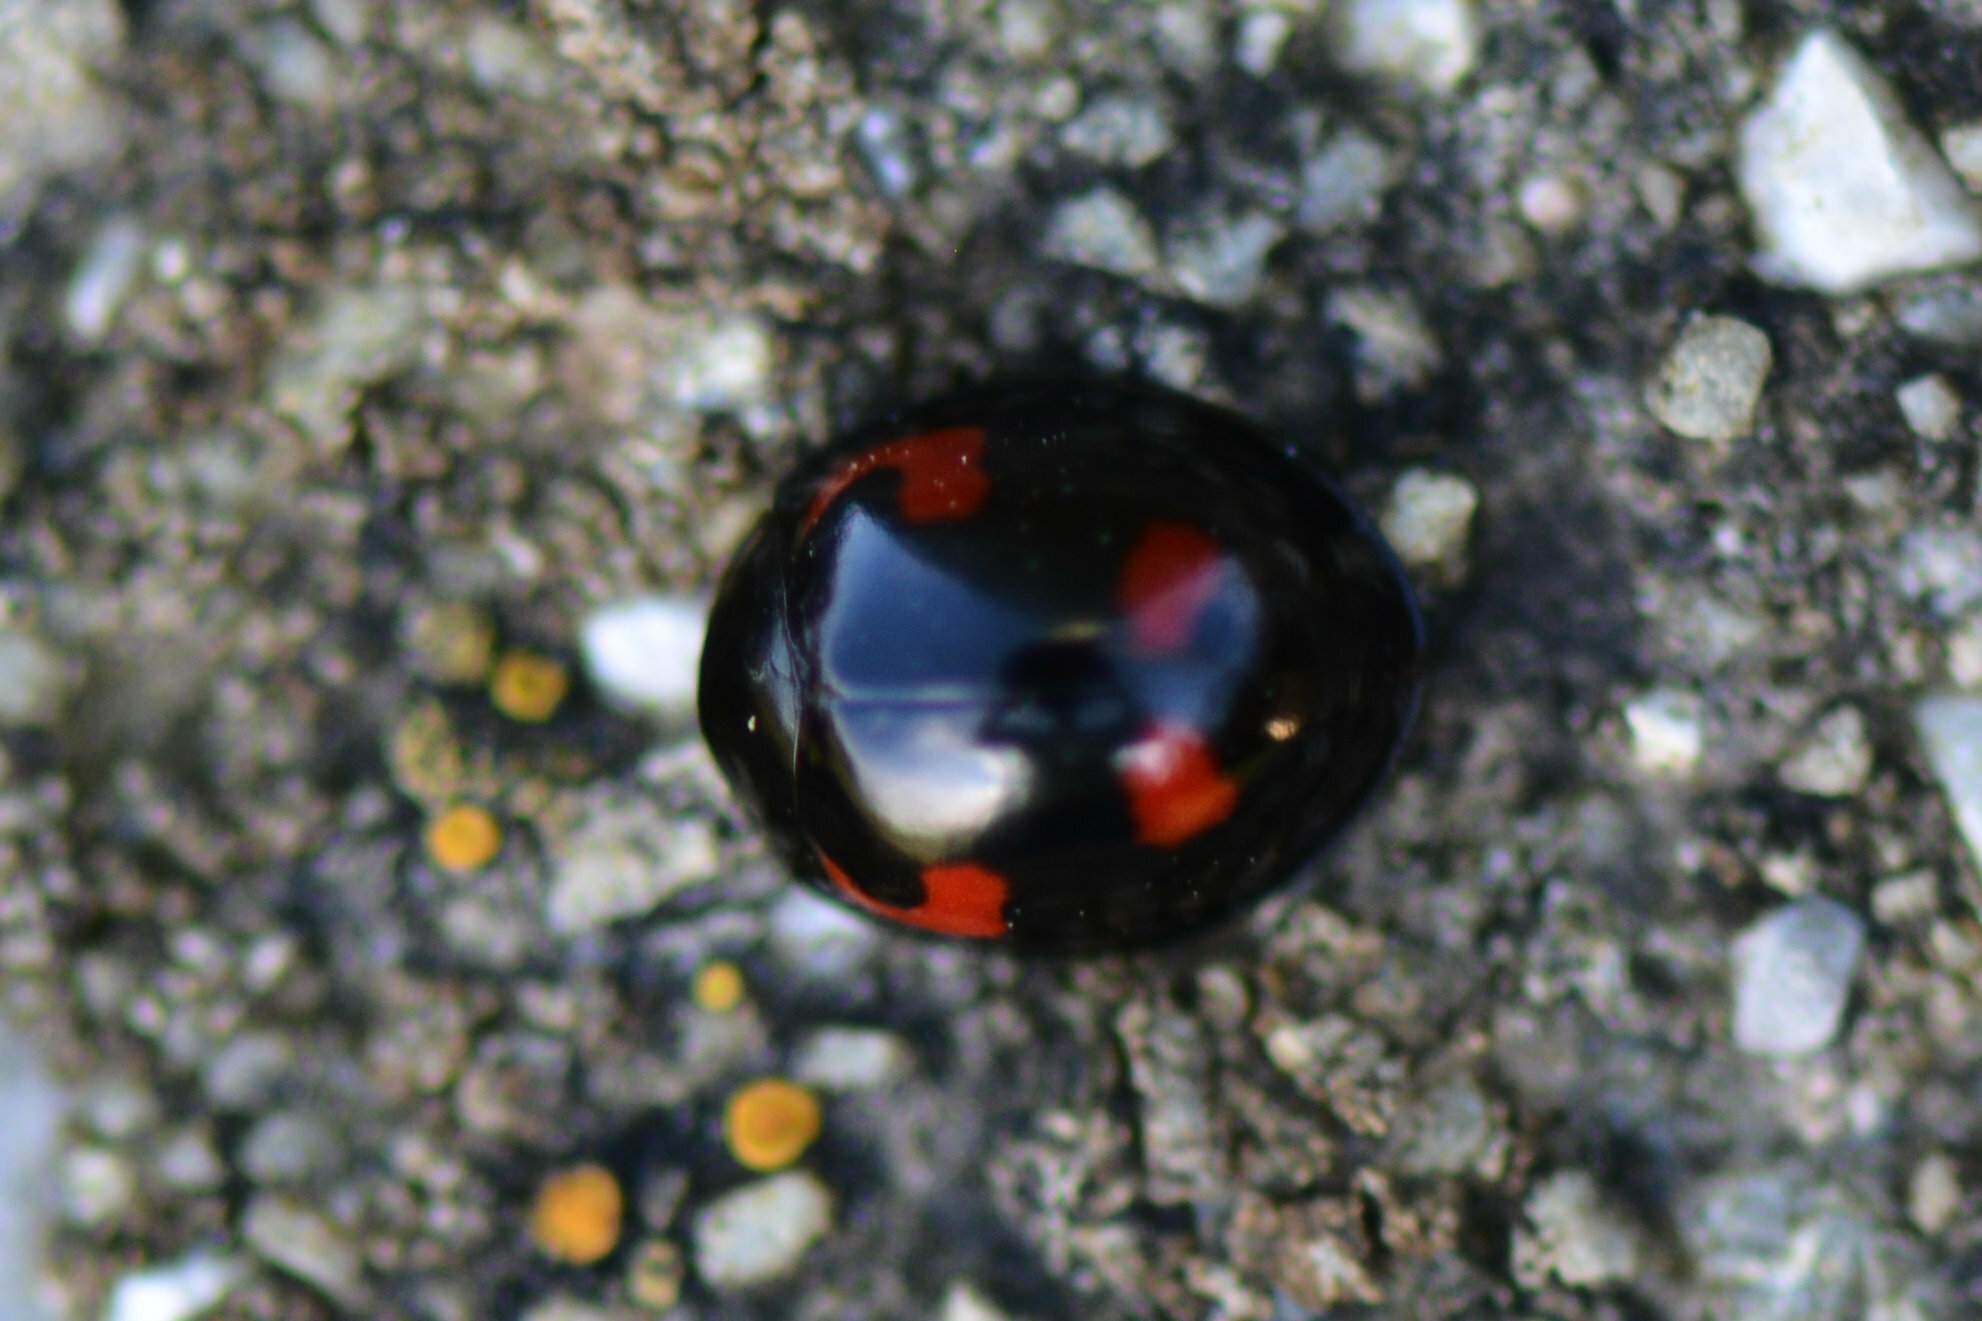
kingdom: Animalia
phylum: Arthropoda
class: Insecta
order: Coleoptera
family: Coccinellidae
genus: Brumus
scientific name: Brumus quadripustulatus
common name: Ladybird beetle
